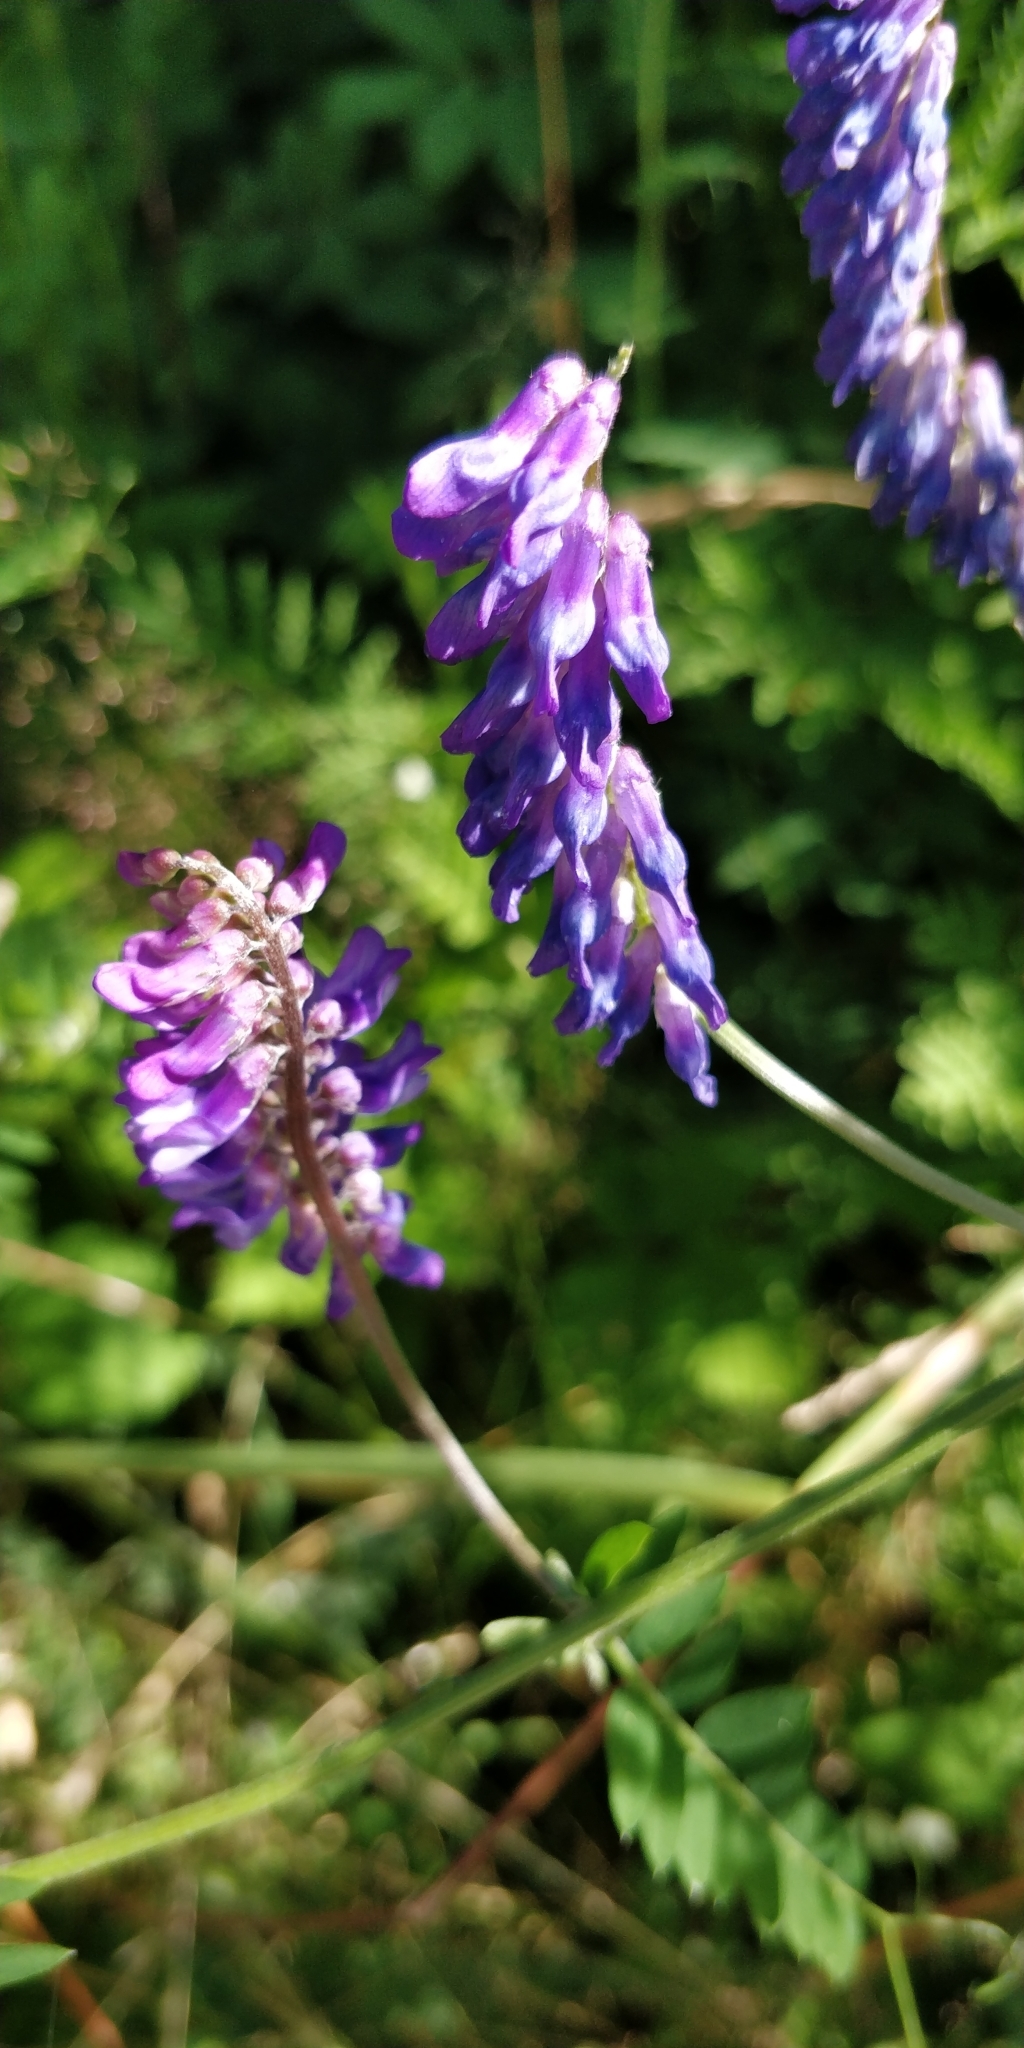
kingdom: Plantae
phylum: Tracheophyta
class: Magnoliopsida
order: Fabales
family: Fabaceae
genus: Vicia
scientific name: Vicia cracca
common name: Bird vetch
